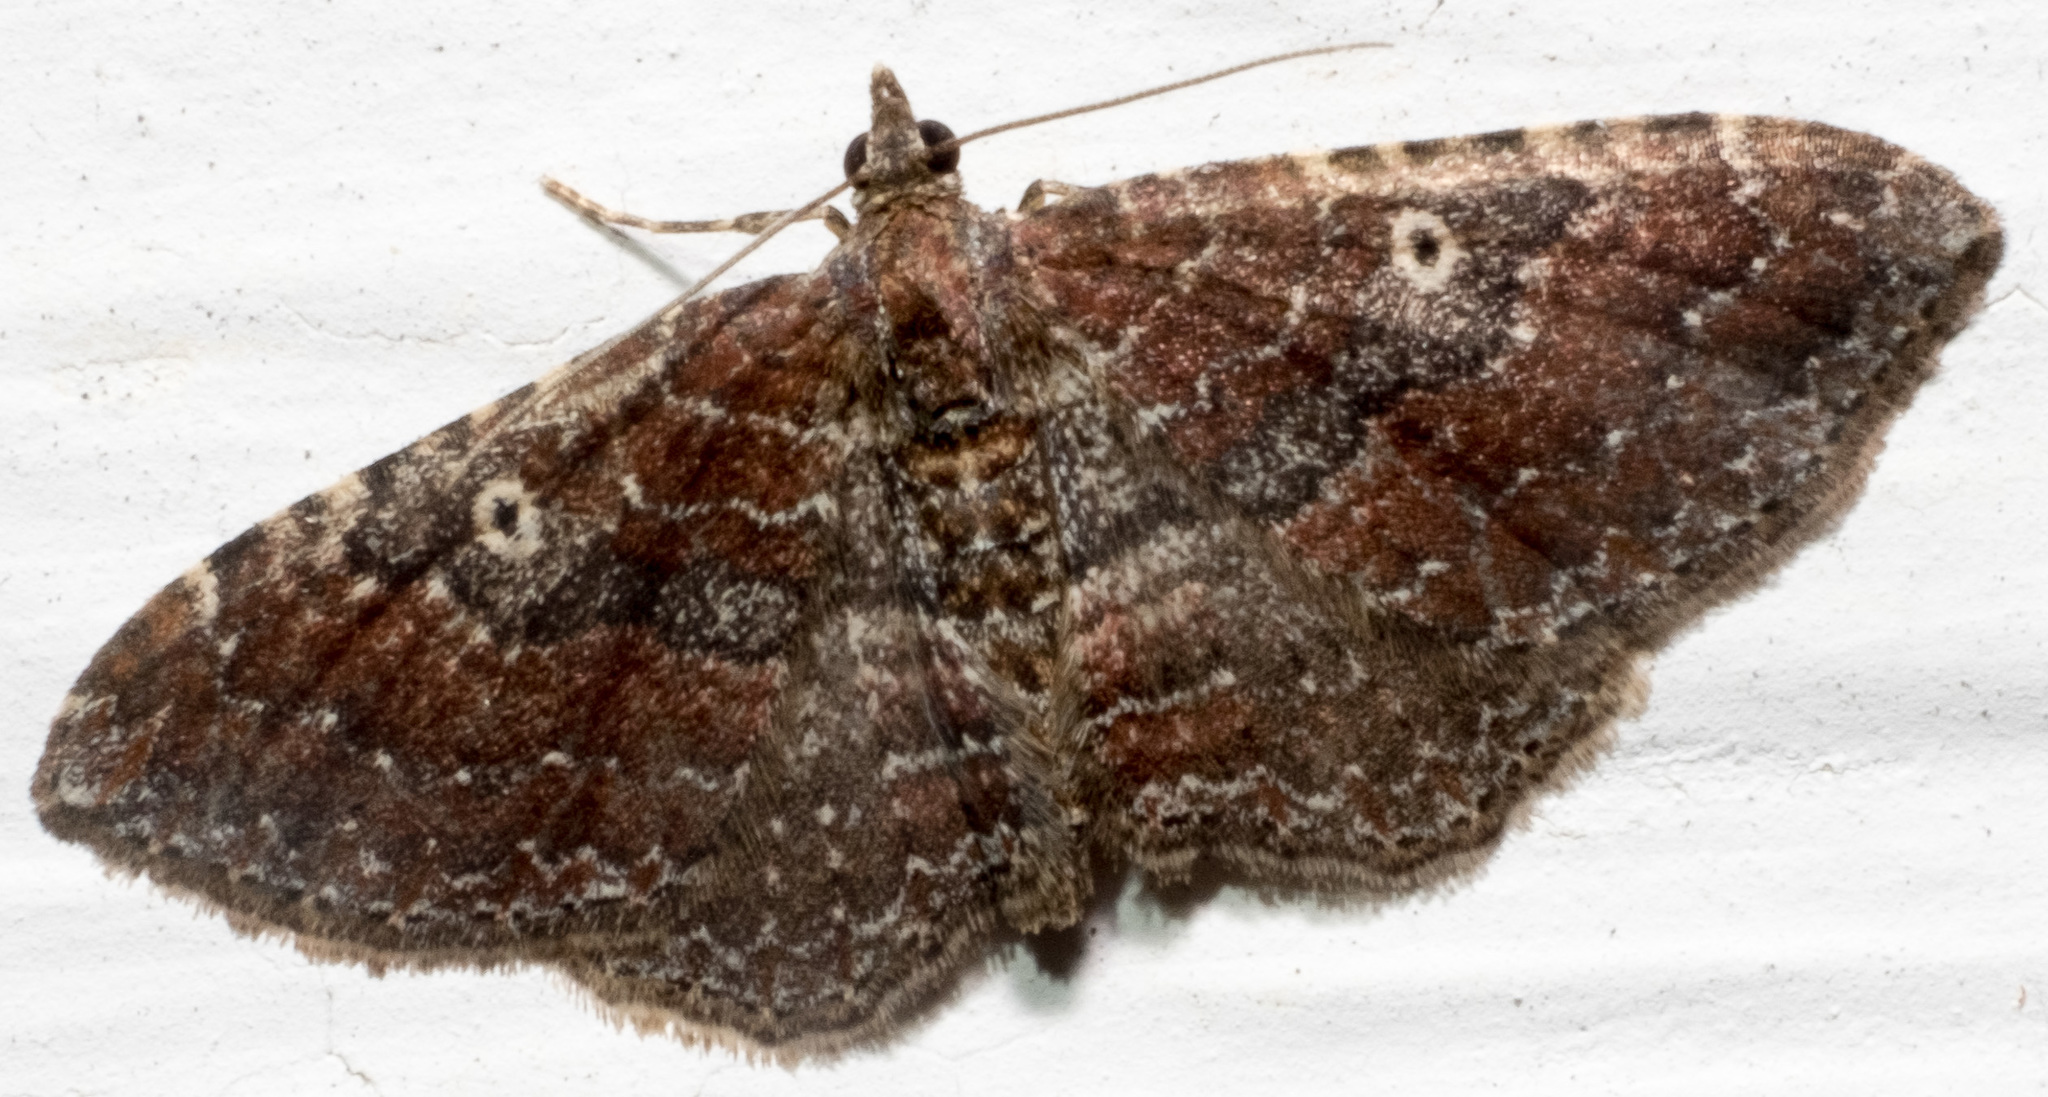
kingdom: Animalia
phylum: Arthropoda
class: Insecta
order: Lepidoptera
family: Geometridae
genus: Orthonama
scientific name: Orthonama obstipata
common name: The gem
